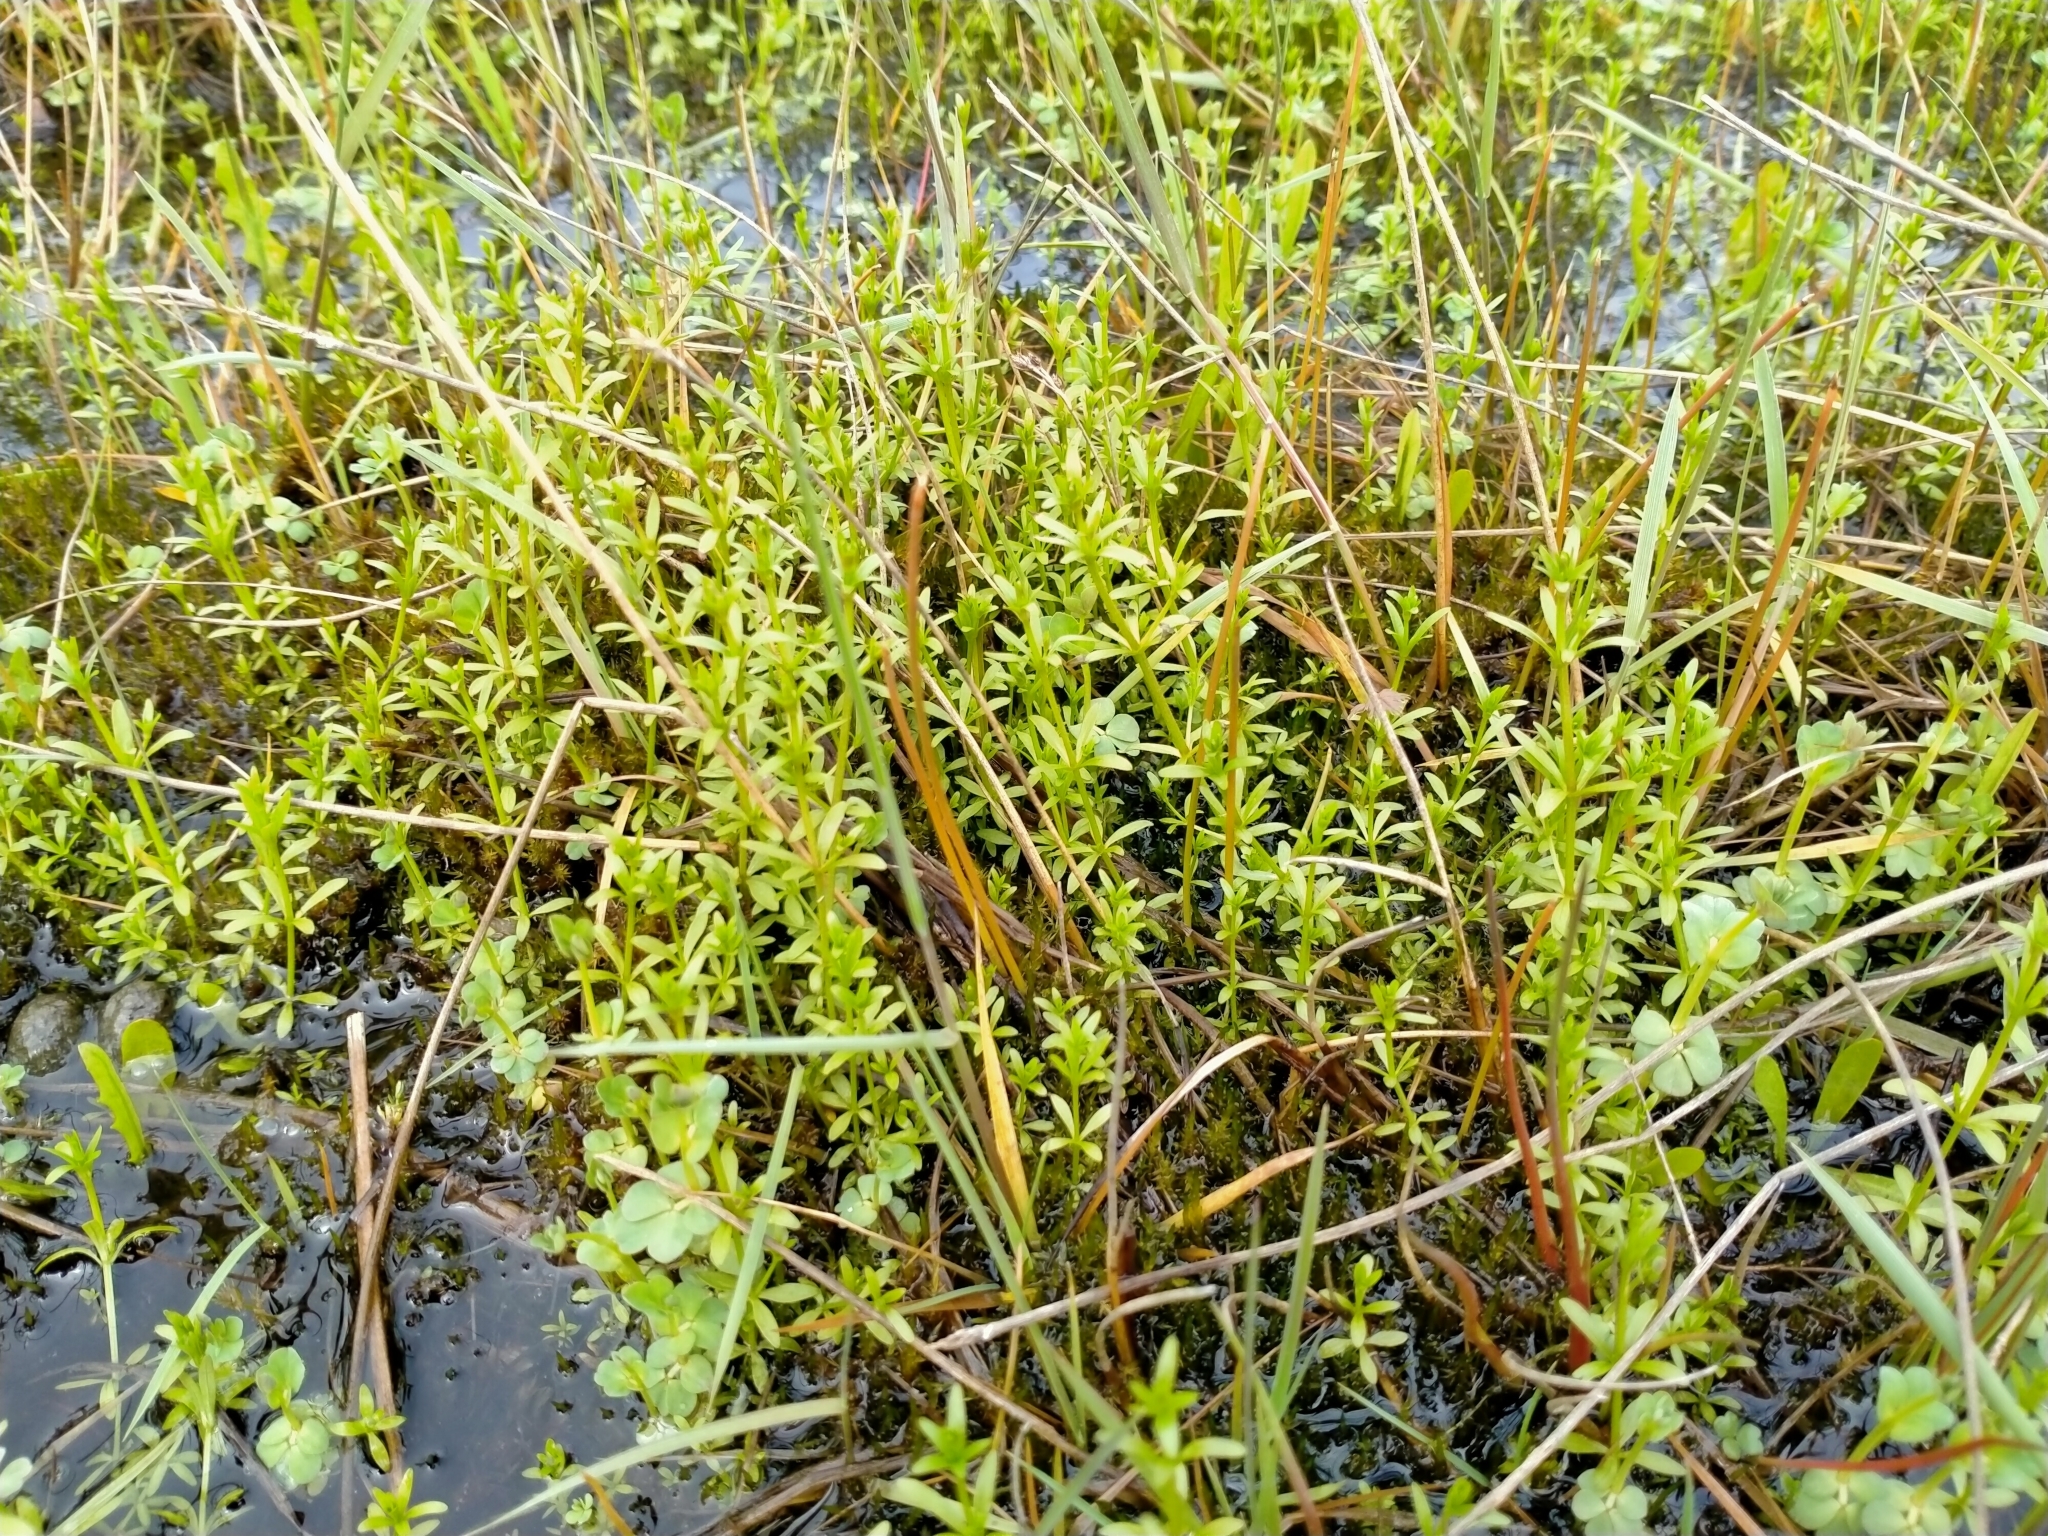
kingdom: Plantae
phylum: Tracheophyta
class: Magnoliopsida
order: Gentianales
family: Rubiaceae
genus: Galium
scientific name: Galium palustre
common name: Common marsh-bedstraw
